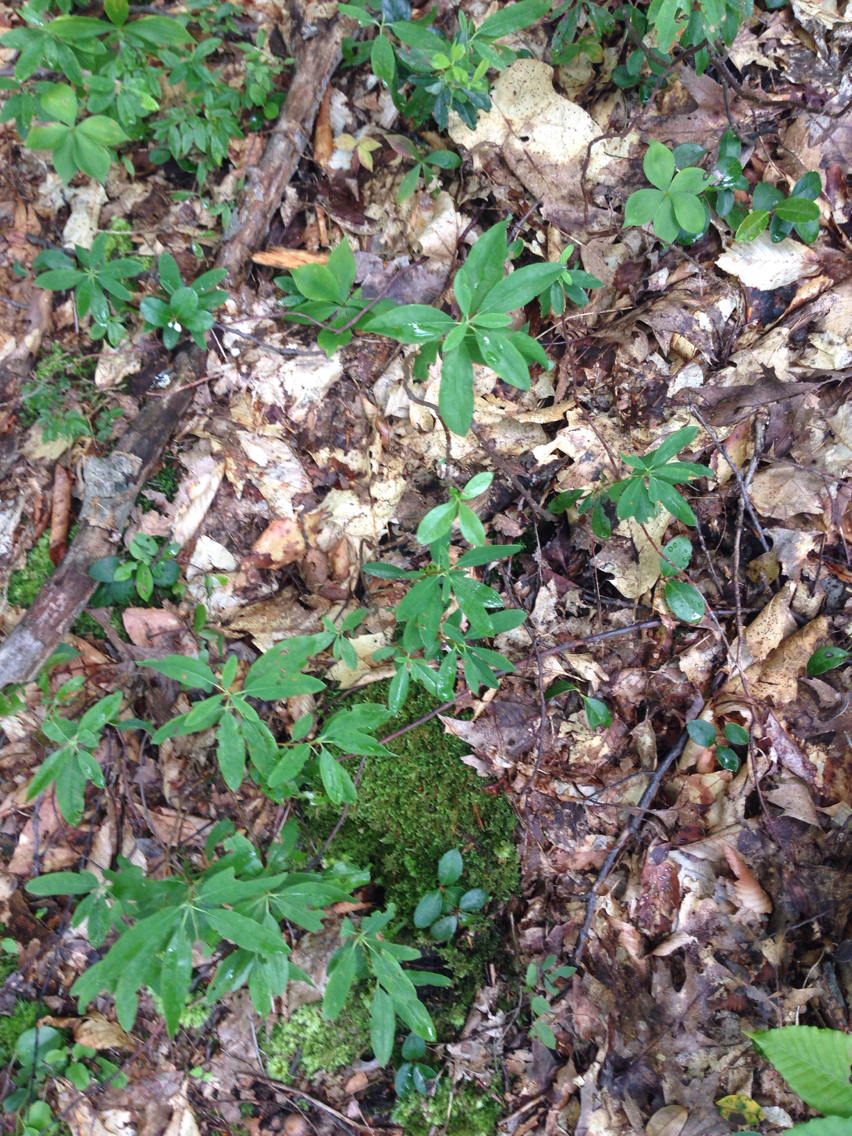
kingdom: Plantae
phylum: Tracheophyta
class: Magnoliopsida
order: Ericales
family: Ericaceae
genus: Kalmia
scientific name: Kalmia angustifolia
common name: Sheep-laurel
